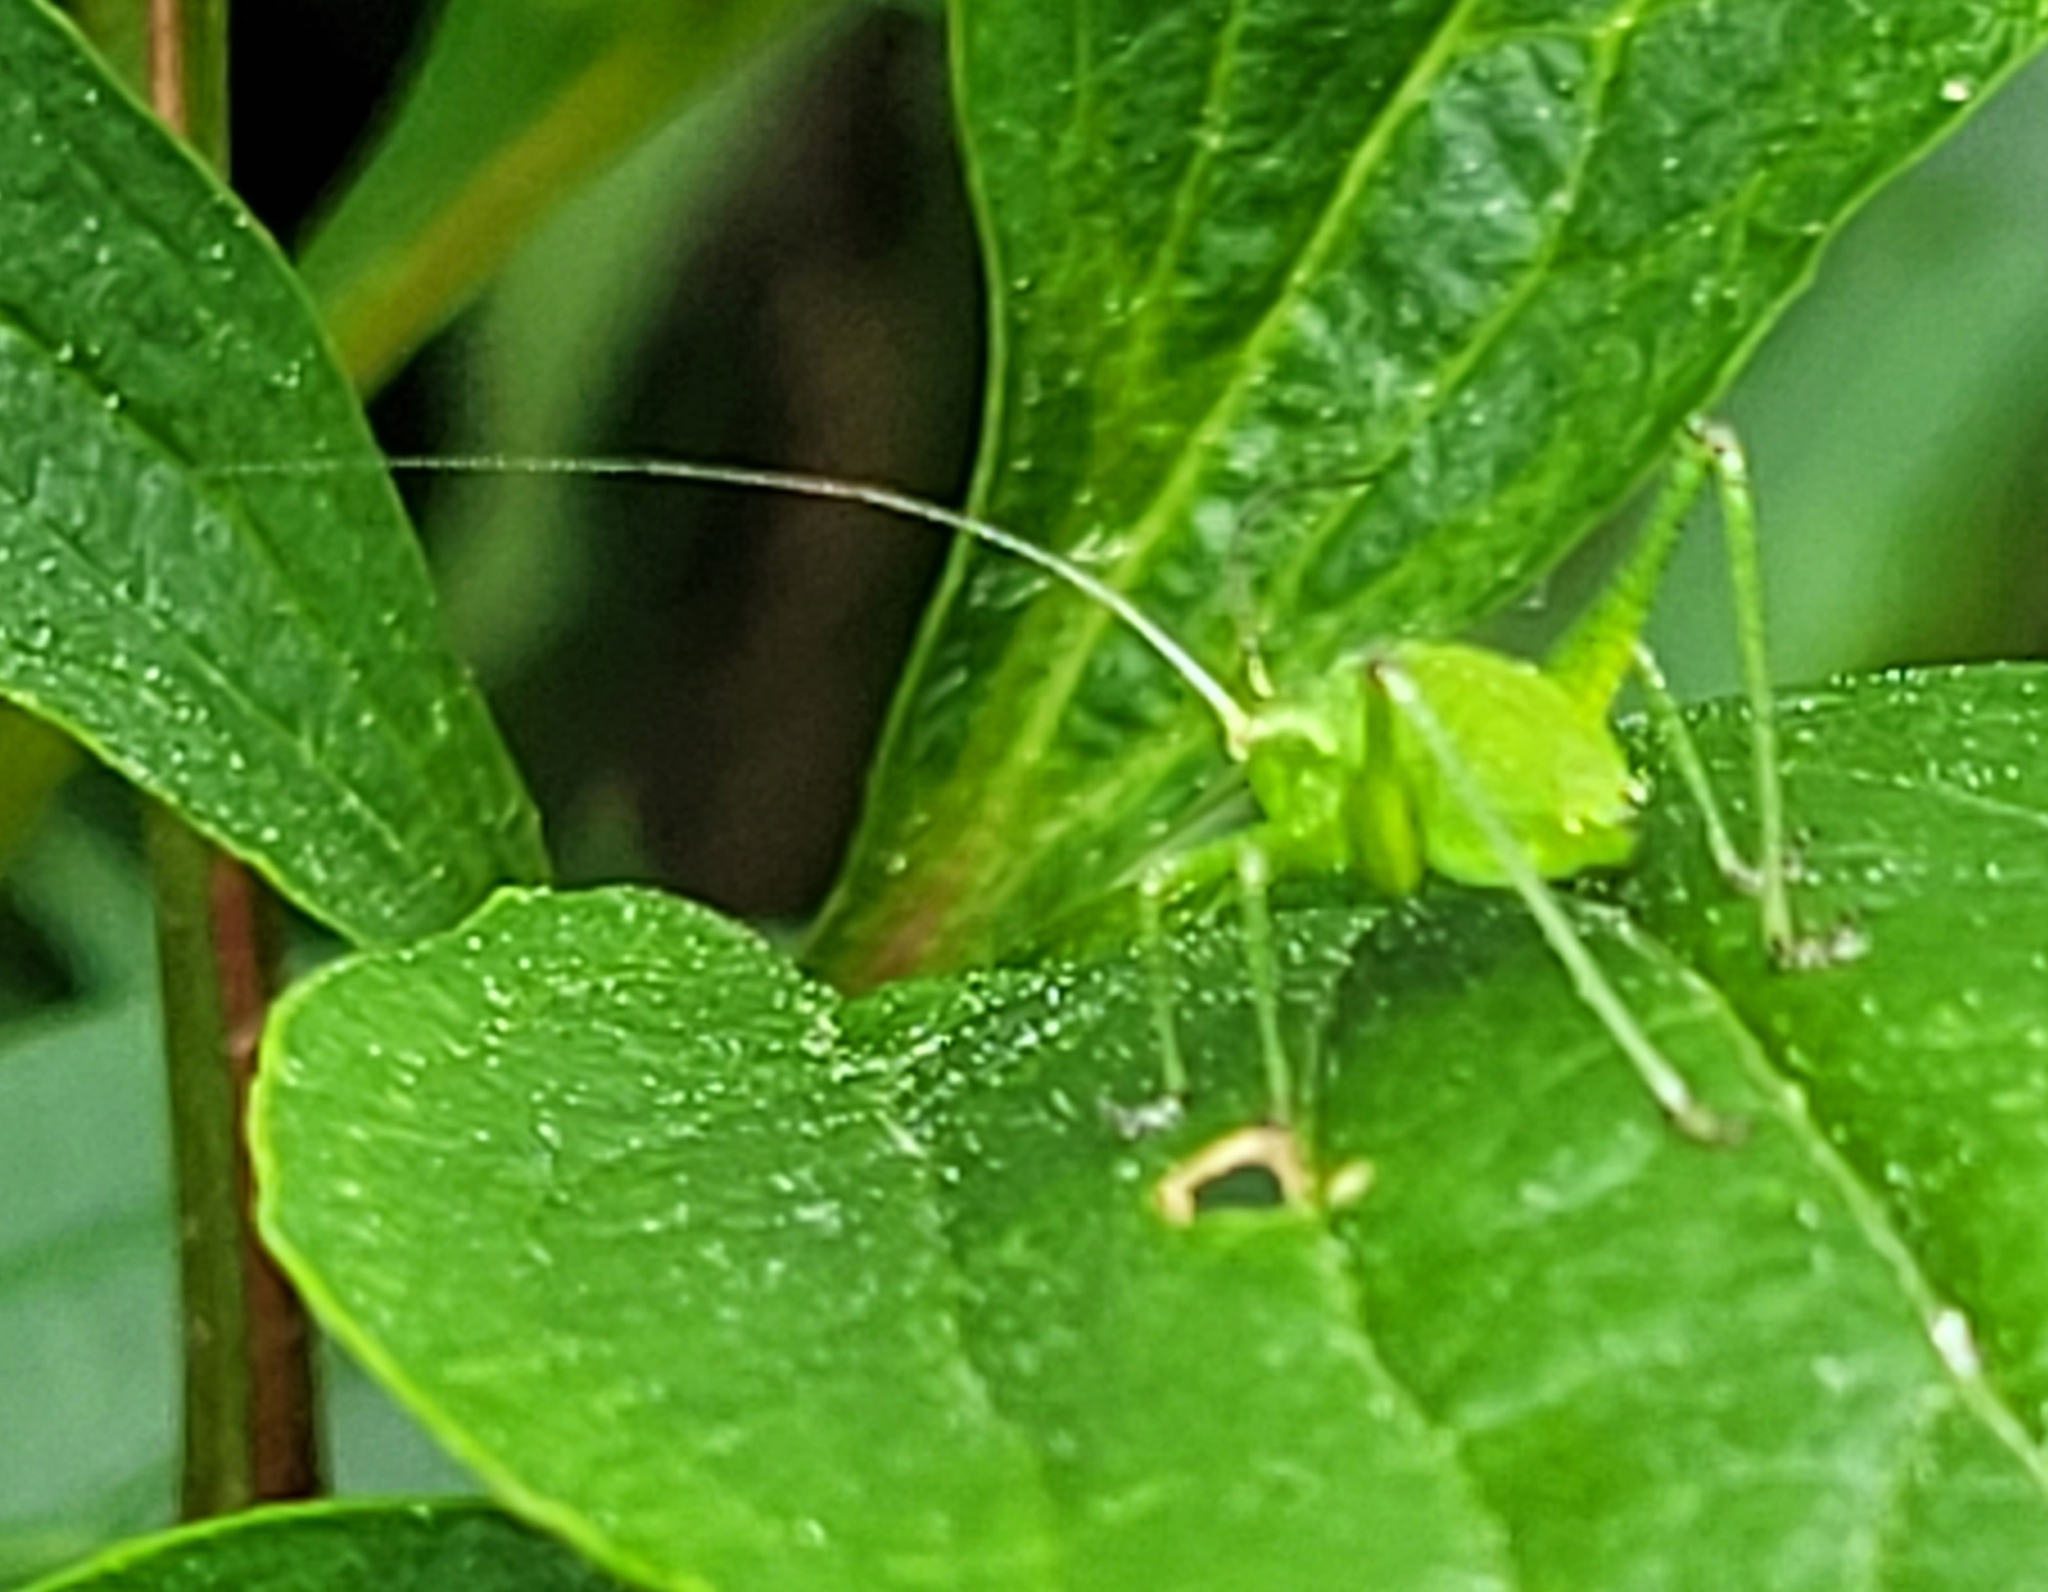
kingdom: Animalia
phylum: Arthropoda
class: Insecta
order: Orthoptera
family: Tettigoniidae
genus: Leptophyes
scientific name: Leptophyes punctatissima
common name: Speckled bush-cricket
